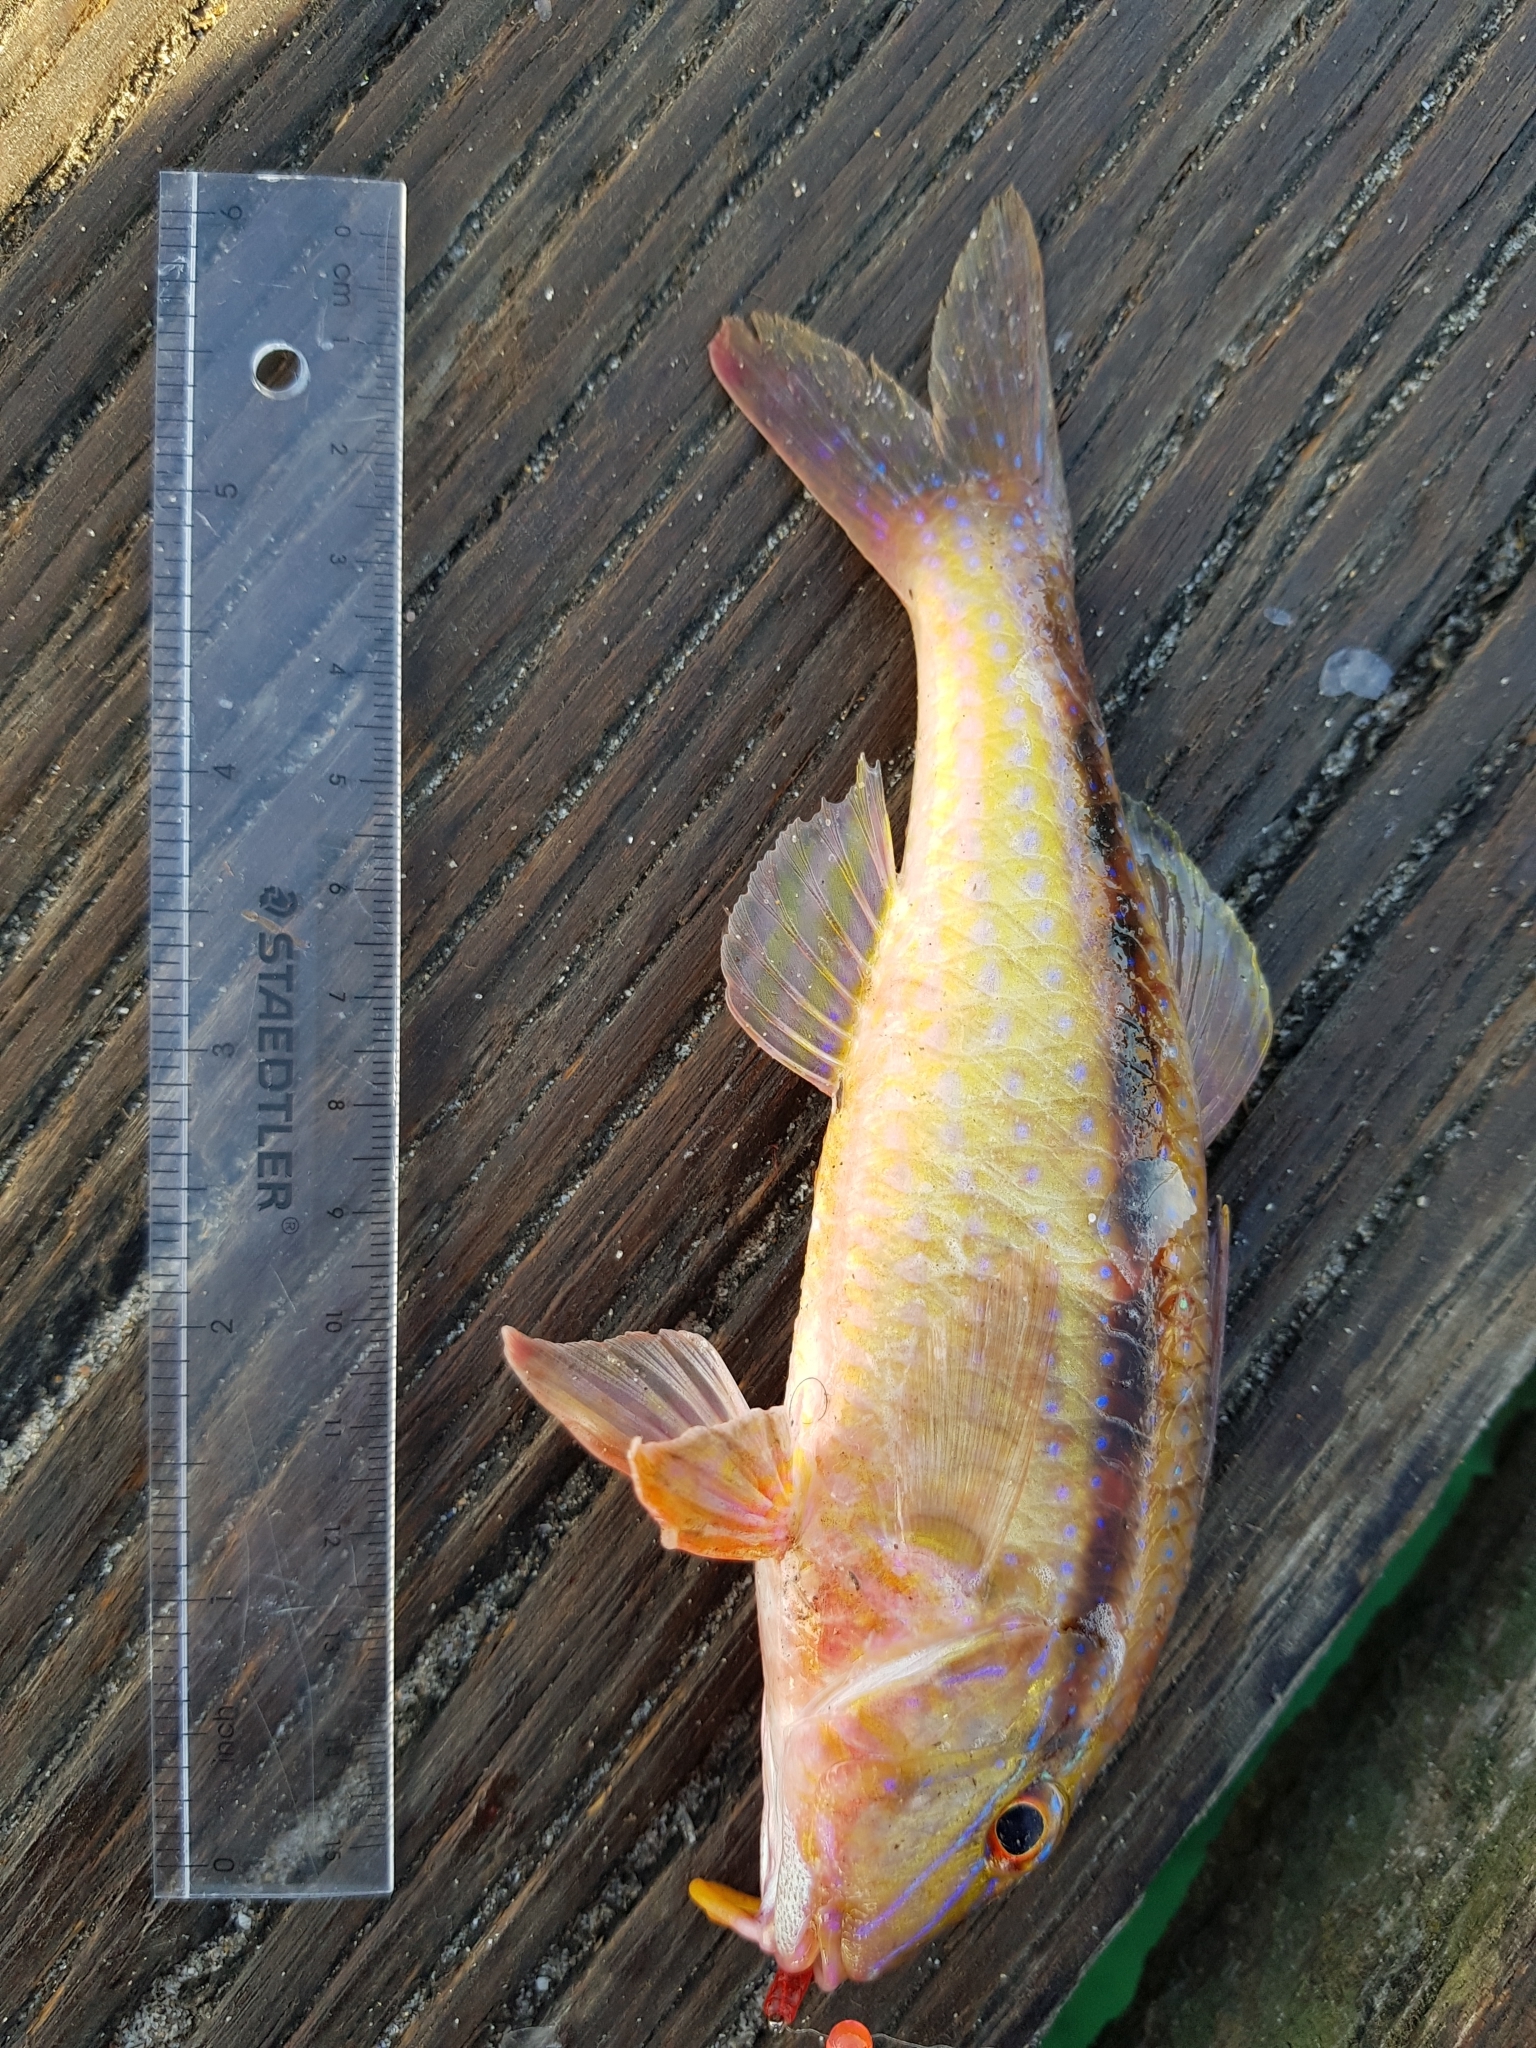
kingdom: Animalia
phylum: Chordata
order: Perciformes
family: Mullidae
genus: Upeneichthys
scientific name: Upeneichthys vlamingii
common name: Red mullet
